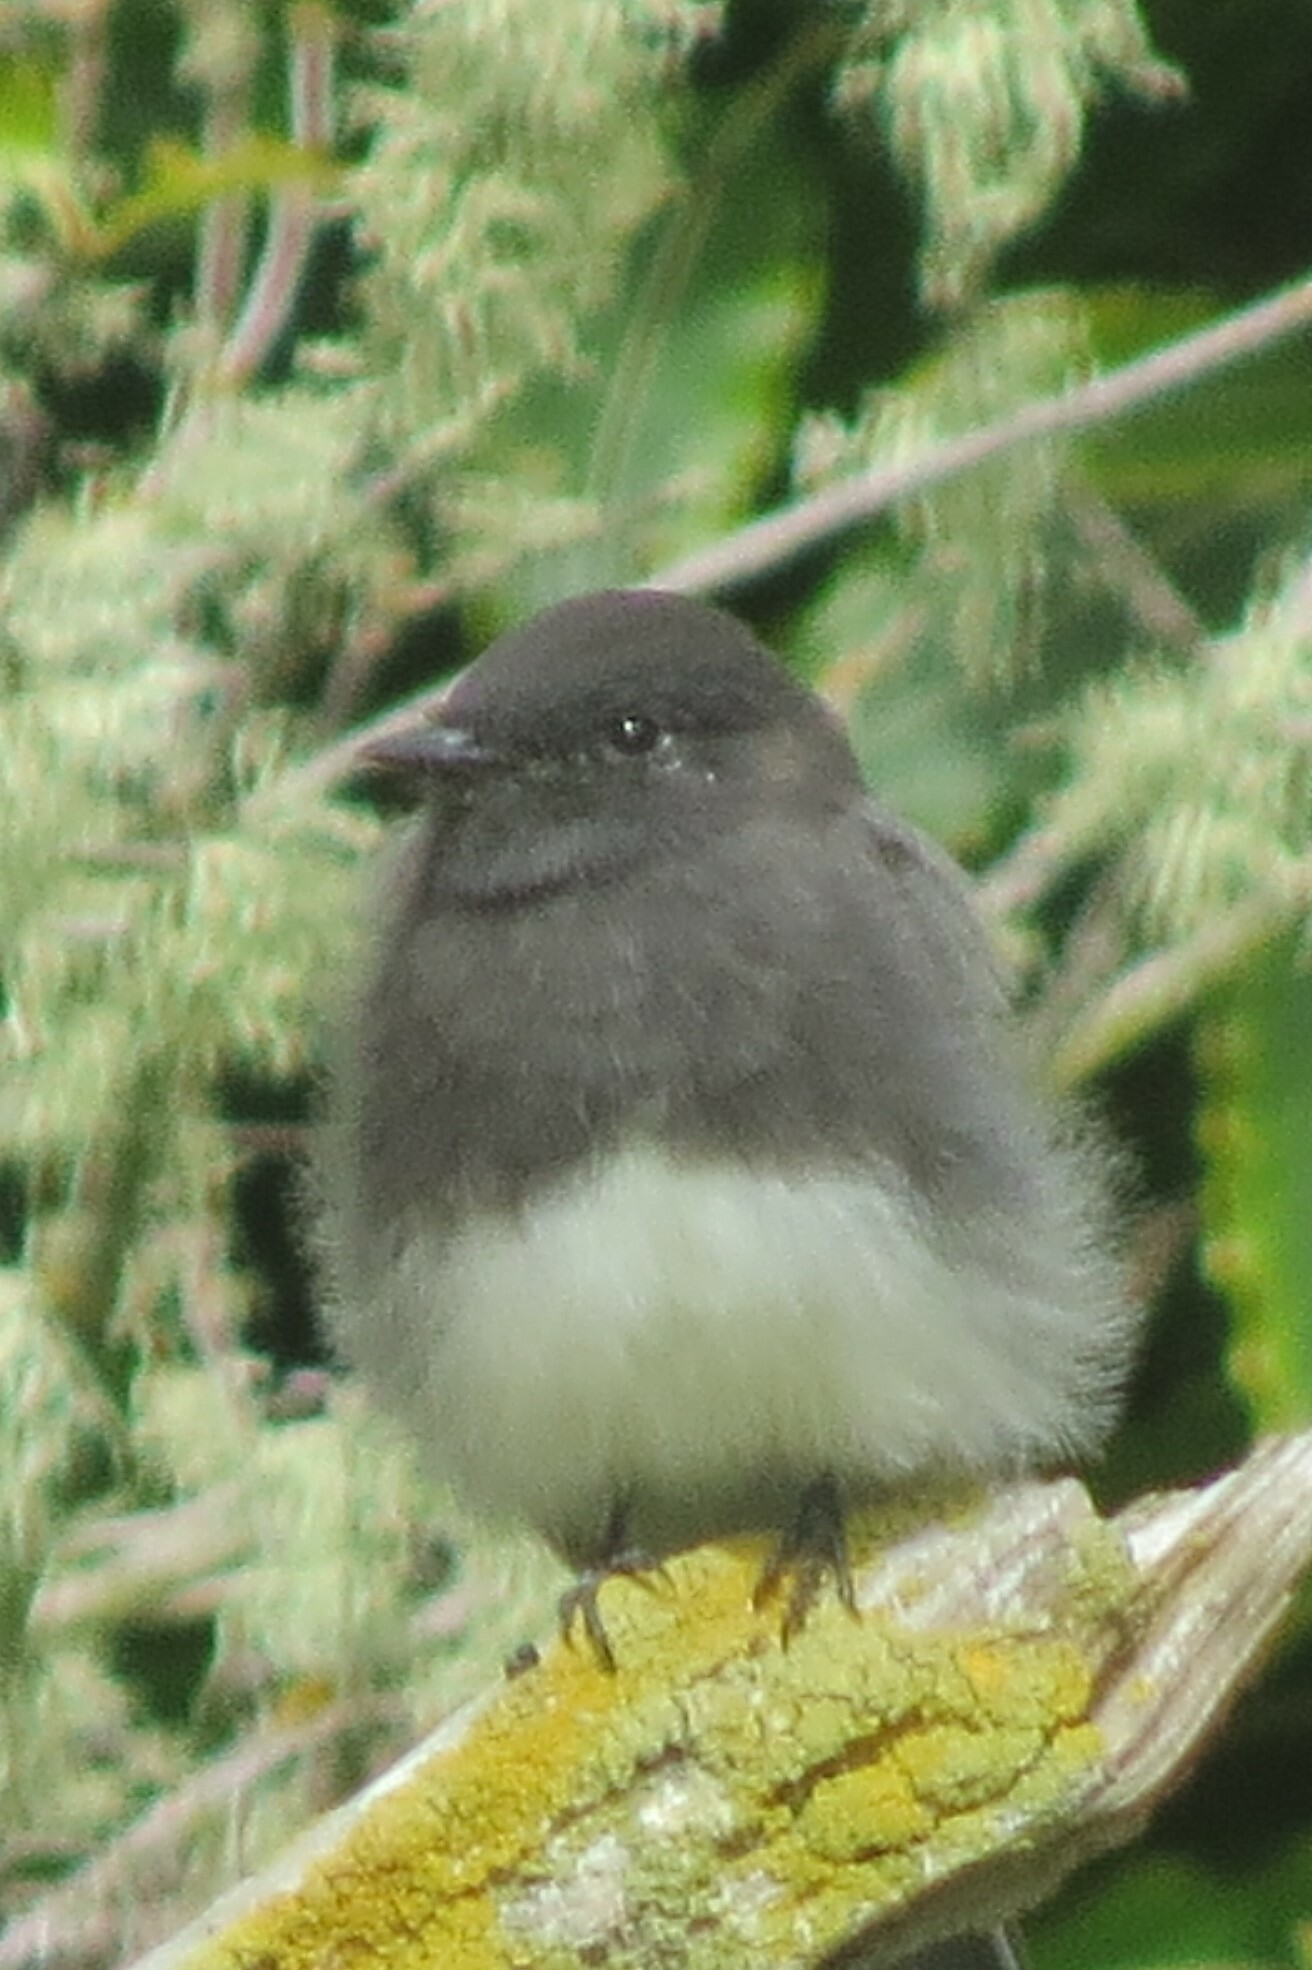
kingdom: Animalia
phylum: Chordata
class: Aves
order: Passeriformes
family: Tyrannidae
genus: Sayornis
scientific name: Sayornis nigricans
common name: Black phoebe
